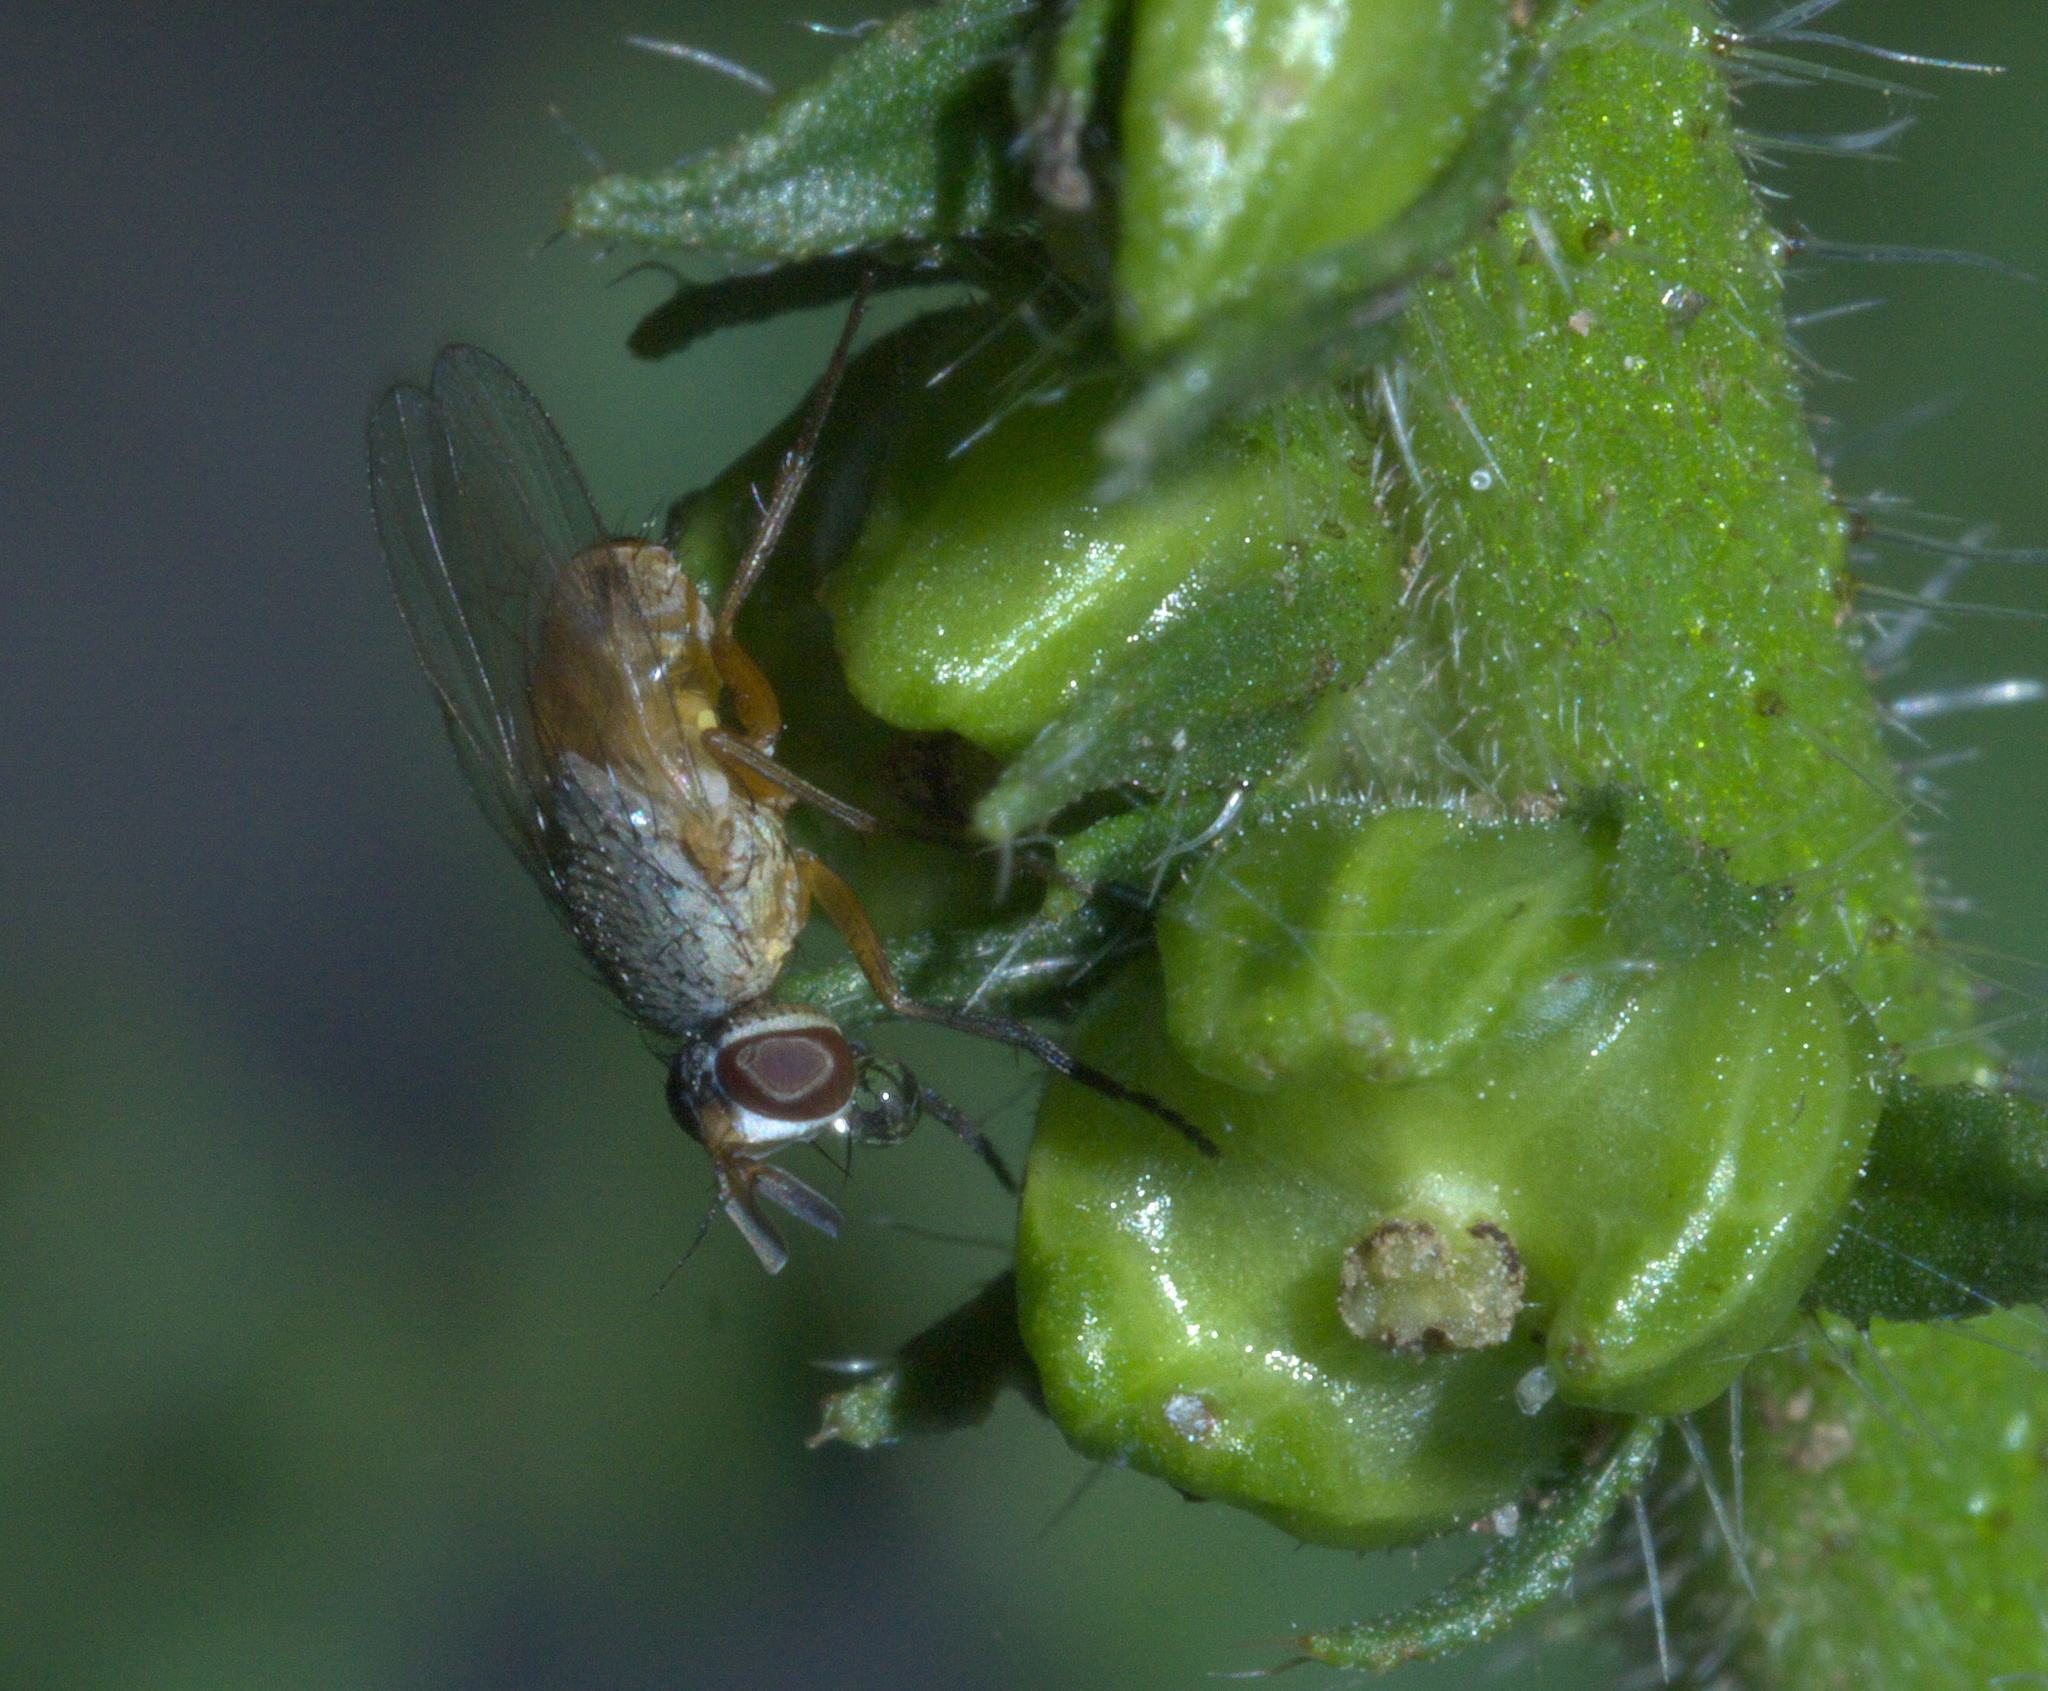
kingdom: Animalia
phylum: Arthropoda
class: Insecta
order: Diptera
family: Muscidae
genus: Atherigona
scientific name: Atherigona reversura
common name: Bermudagrass stem maggot
